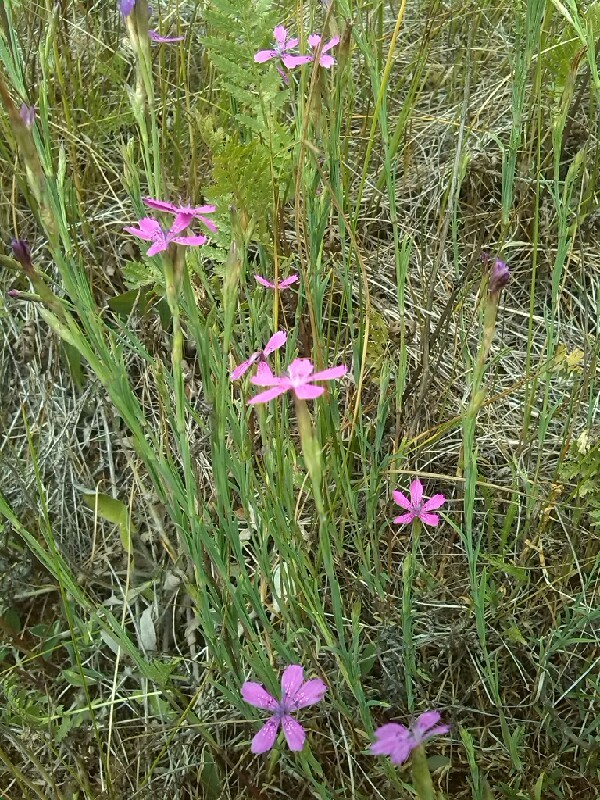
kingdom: Plantae
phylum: Tracheophyta
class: Magnoliopsida
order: Caryophyllales
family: Caryophyllaceae
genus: Dianthus
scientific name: Dianthus deltoides
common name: Maiden pink
